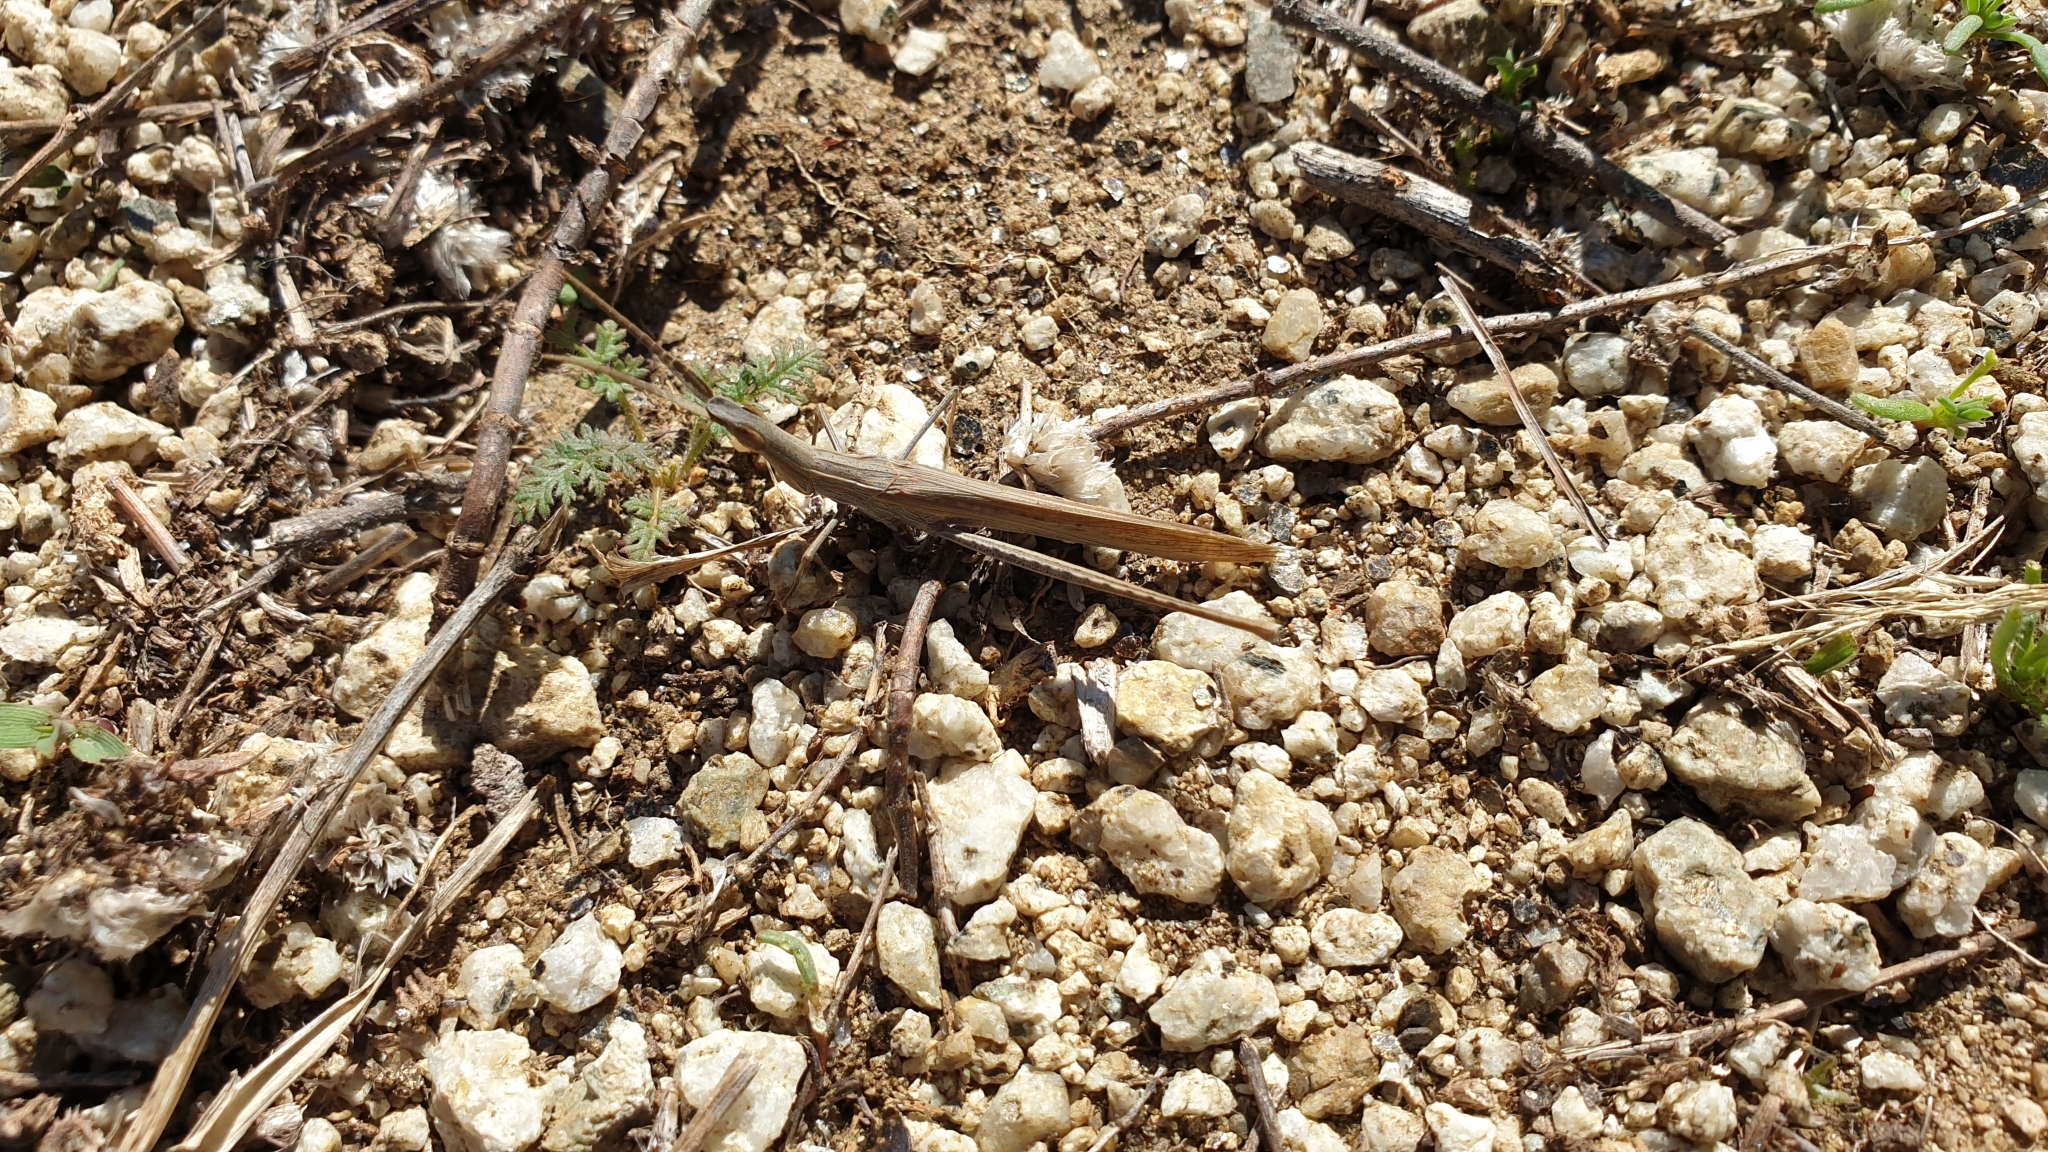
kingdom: Animalia
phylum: Arthropoda
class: Insecta
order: Orthoptera
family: Acrididae
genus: Acrida
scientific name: Acrida ungarica
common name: Common cone-headed grasshopper
